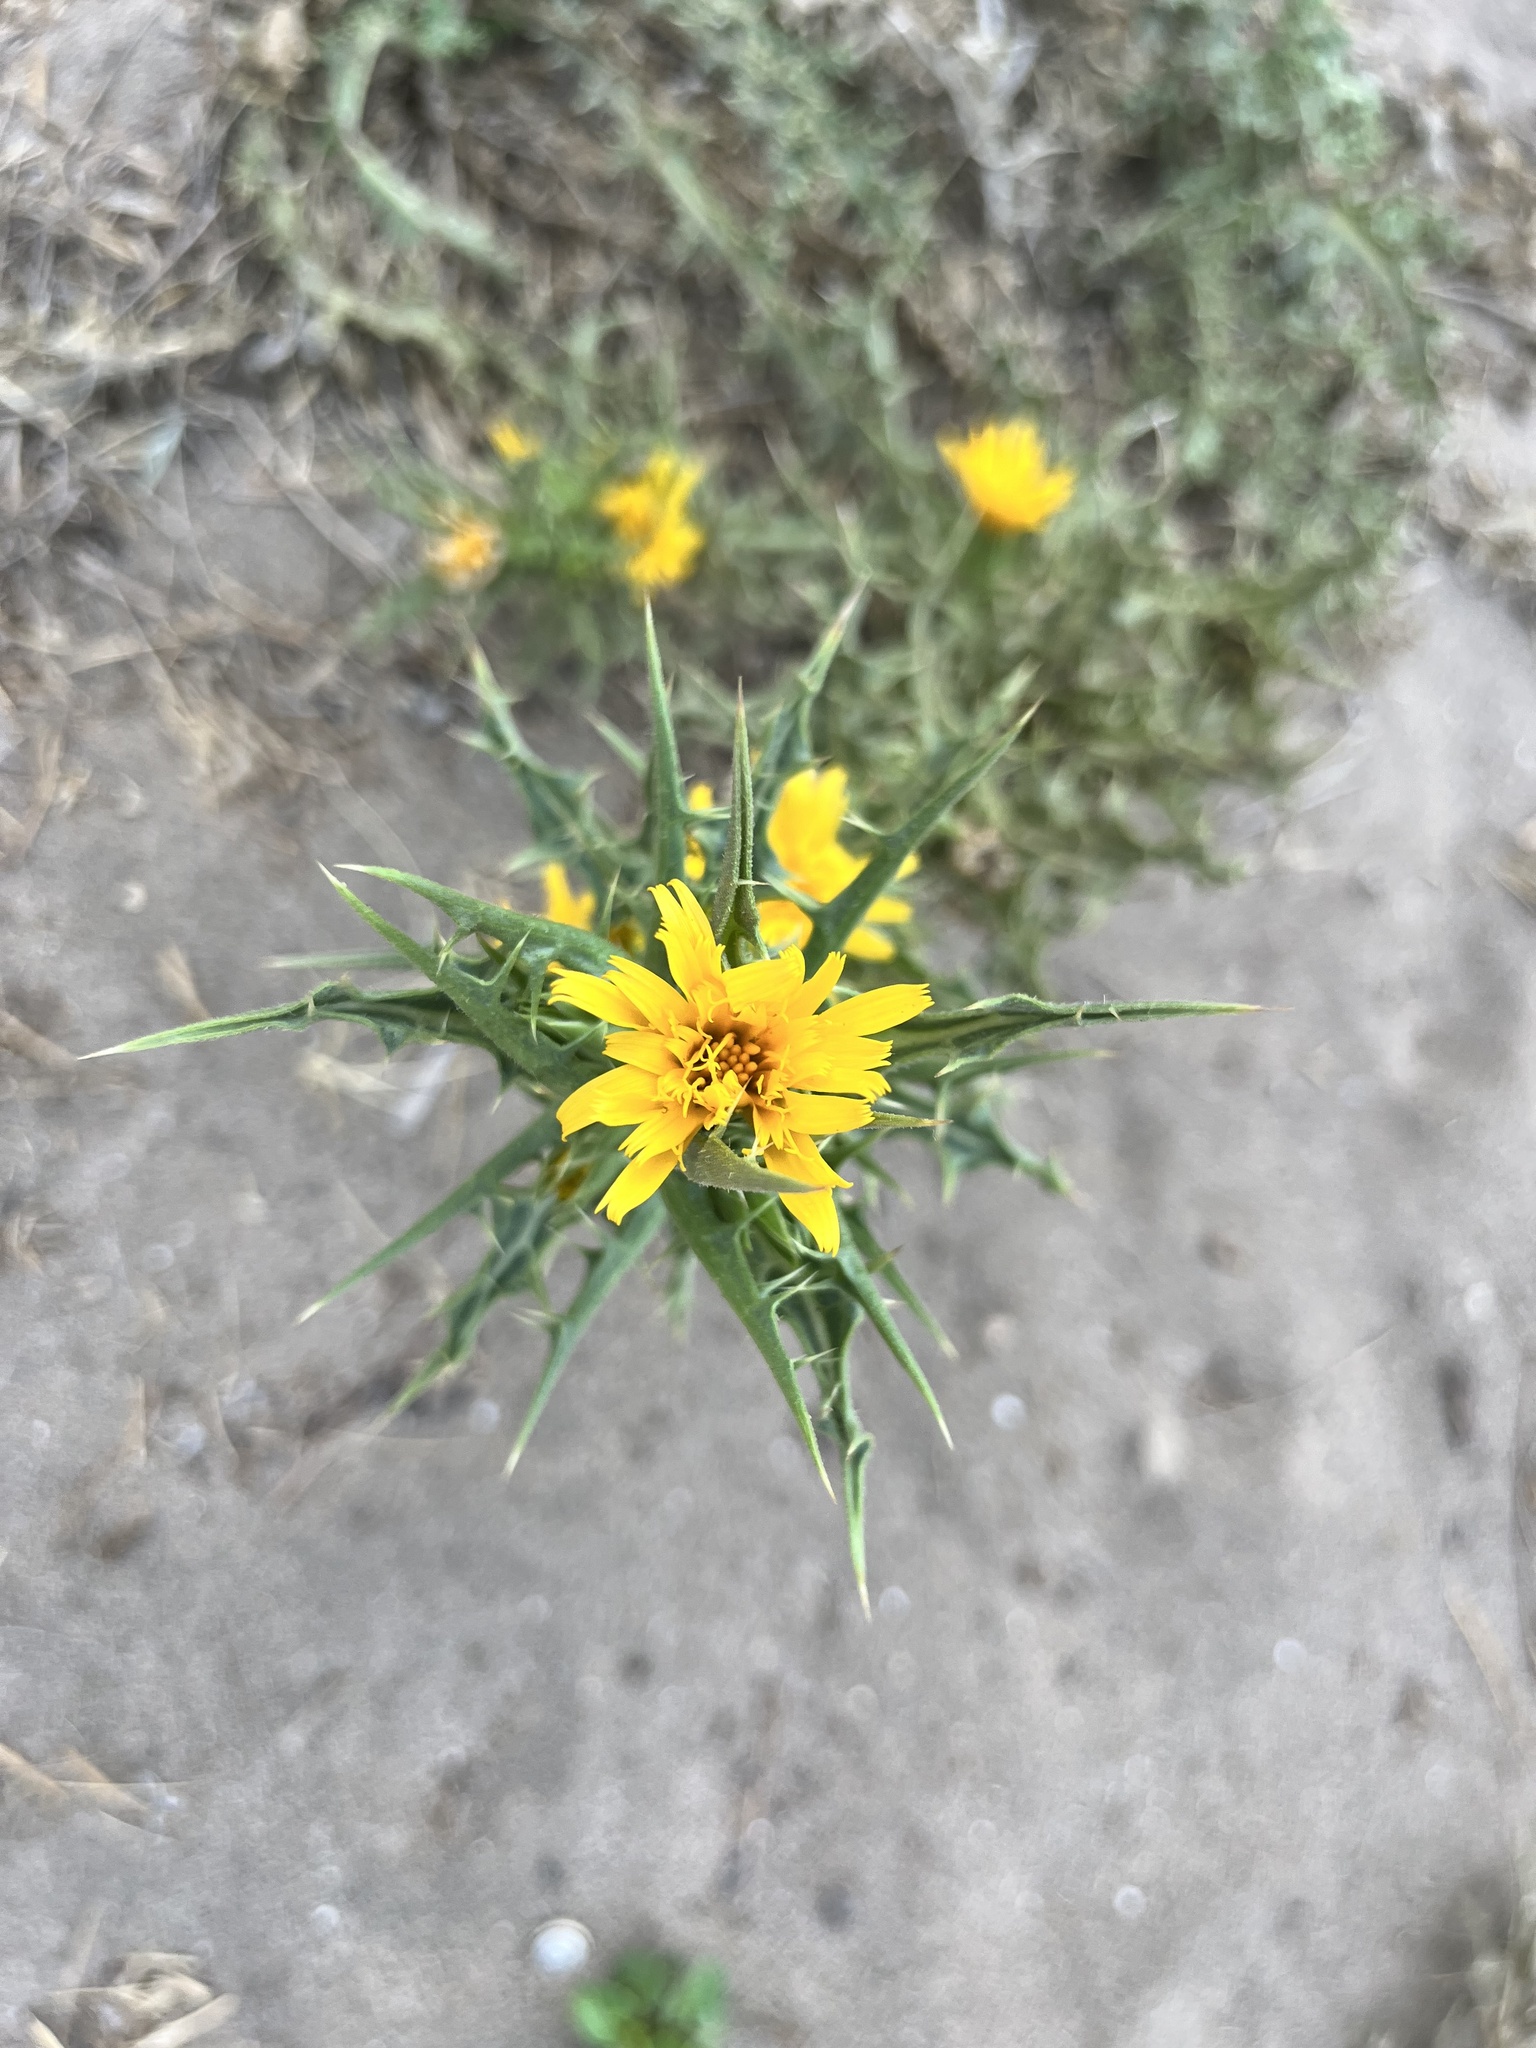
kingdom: Plantae
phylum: Tracheophyta
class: Magnoliopsida
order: Asterales
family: Asteraceae
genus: Scolymus
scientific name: Scolymus hispanicus
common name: Golden thistle
